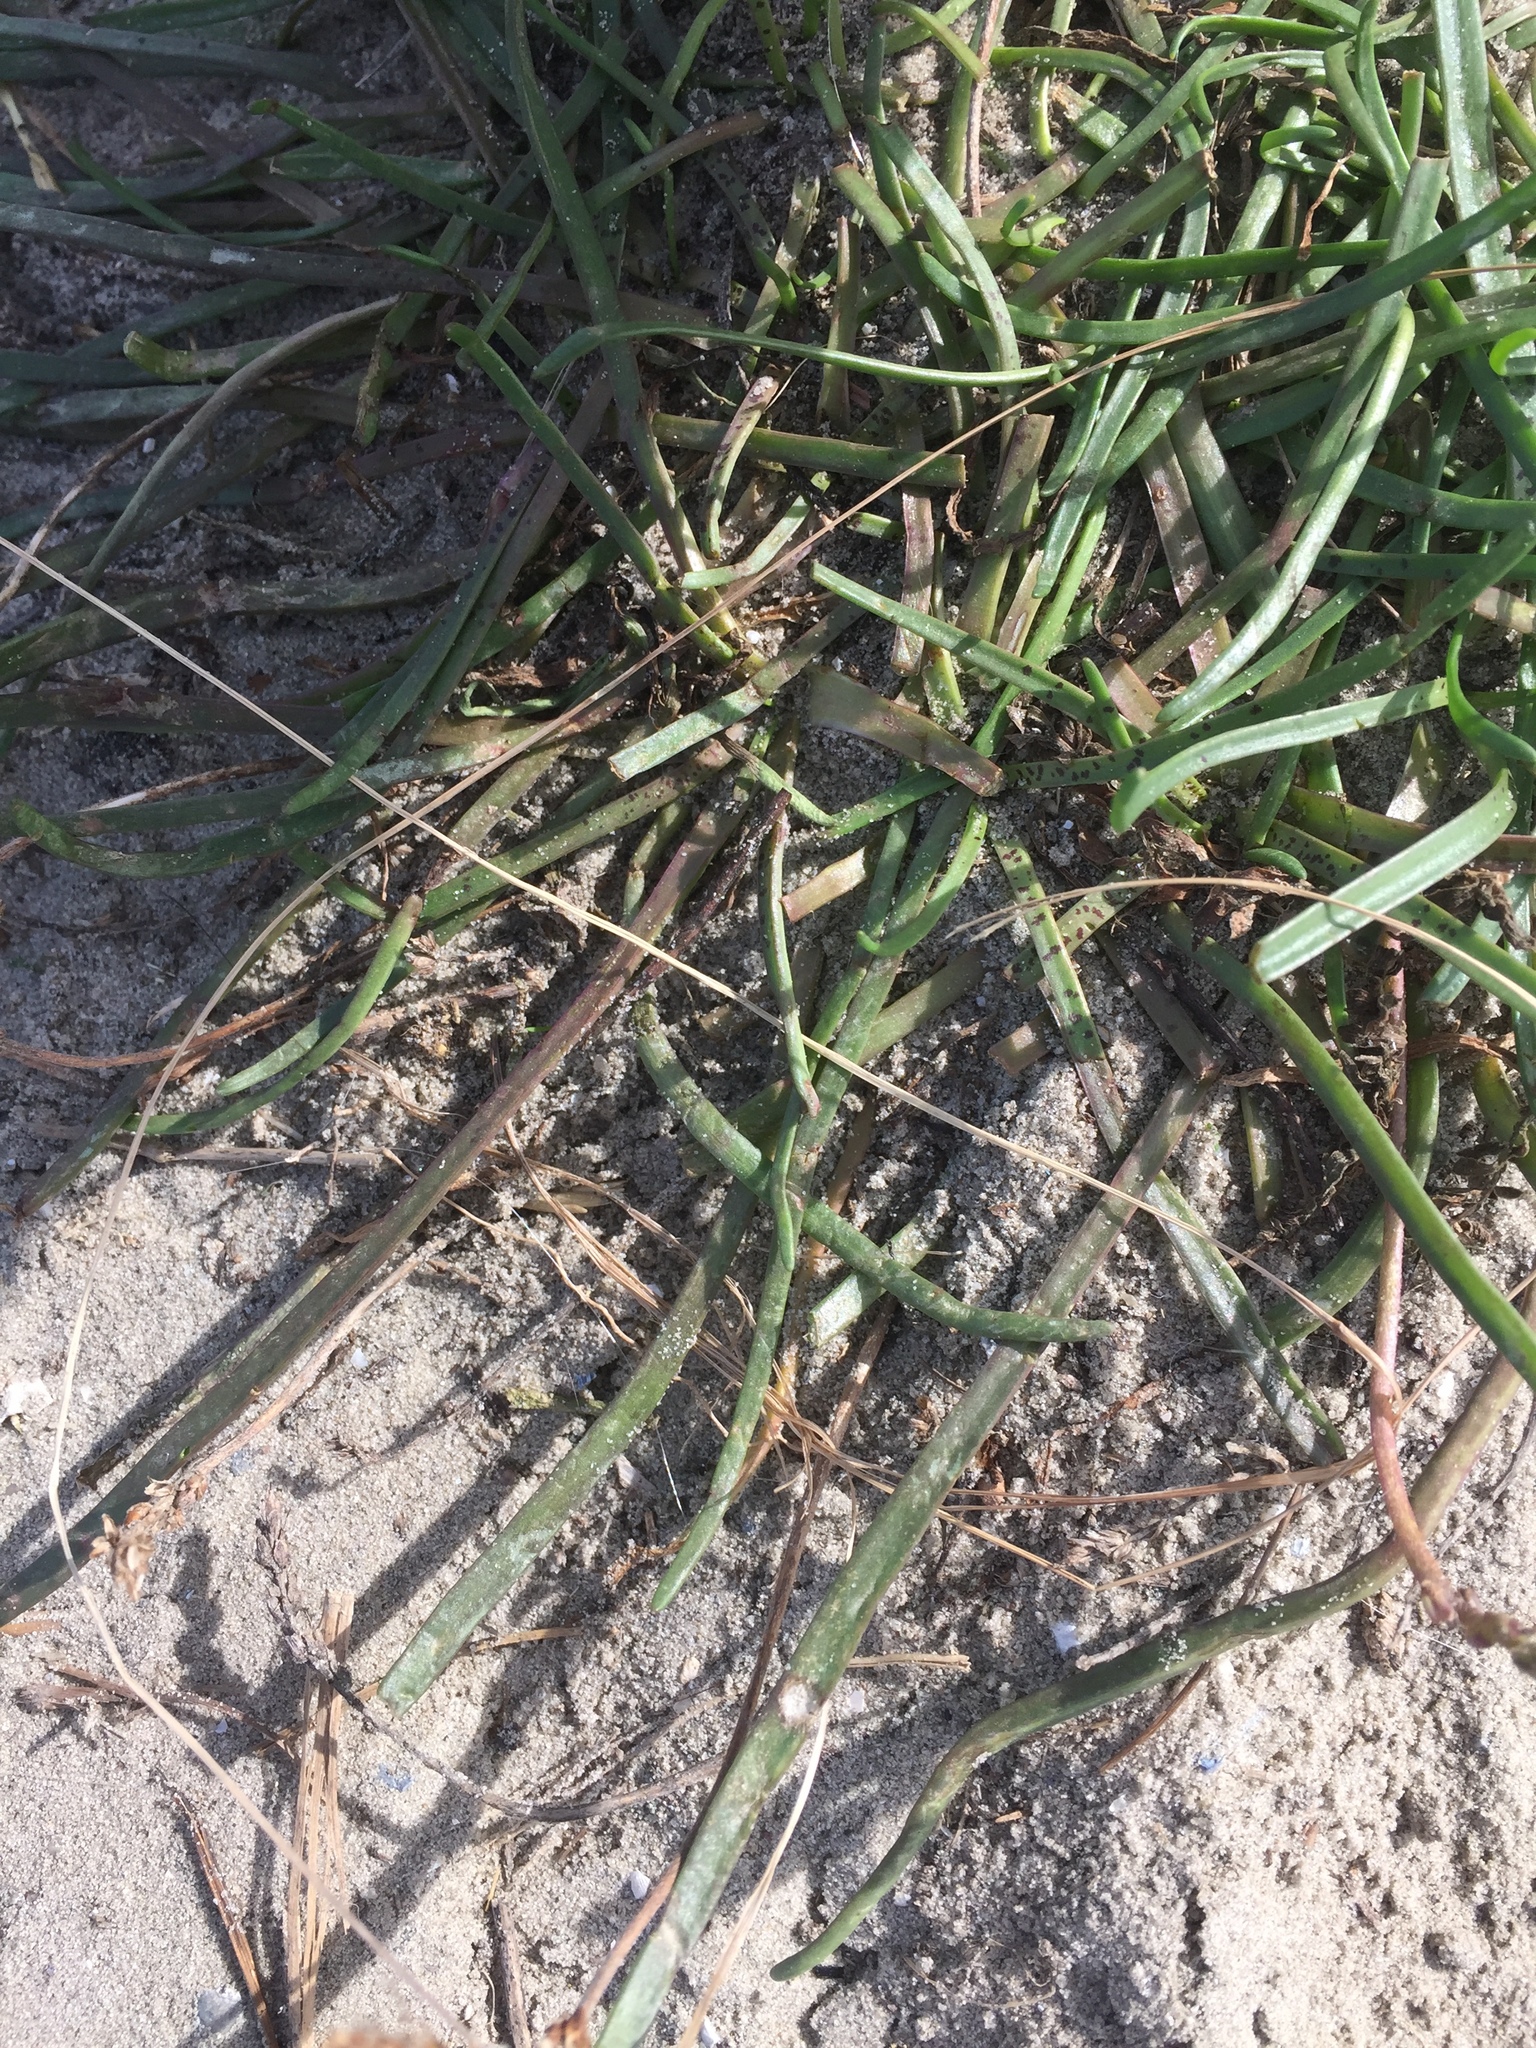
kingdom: Plantae
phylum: Tracheophyta
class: Magnoliopsida
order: Lamiales
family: Plantaginaceae
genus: Plantago
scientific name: Plantago maritima
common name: Sea plantain
